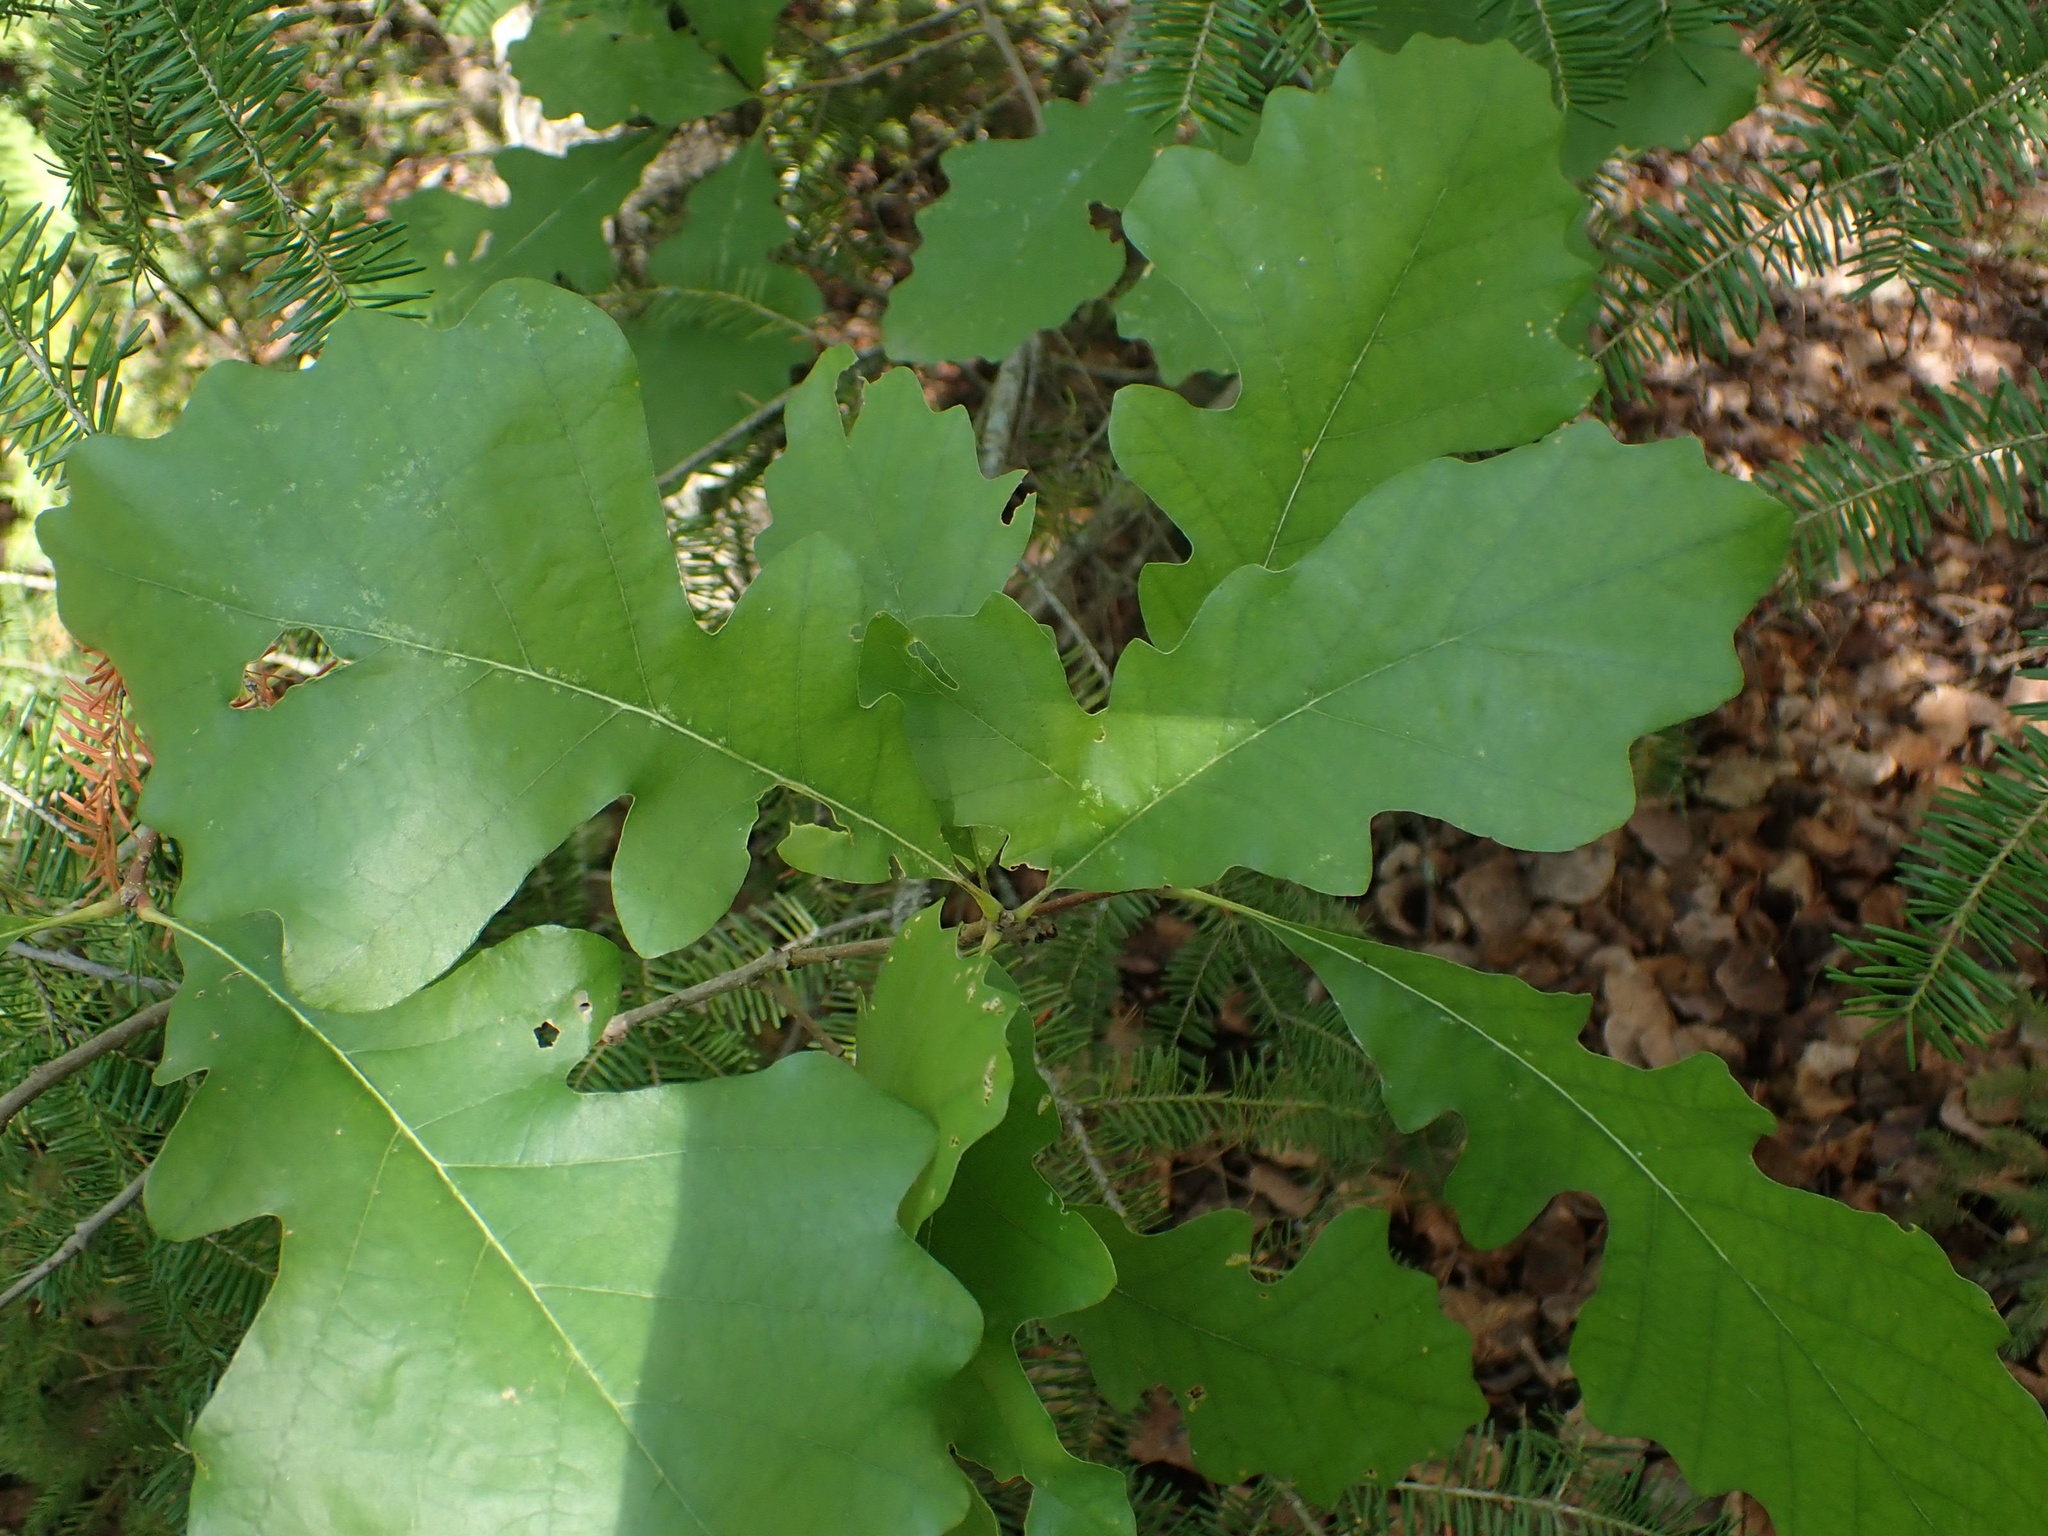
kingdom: Plantae
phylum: Tracheophyta
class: Magnoliopsida
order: Fagales
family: Fagaceae
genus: Quercus
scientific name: Quercus macrocarpa
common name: Bur oak
